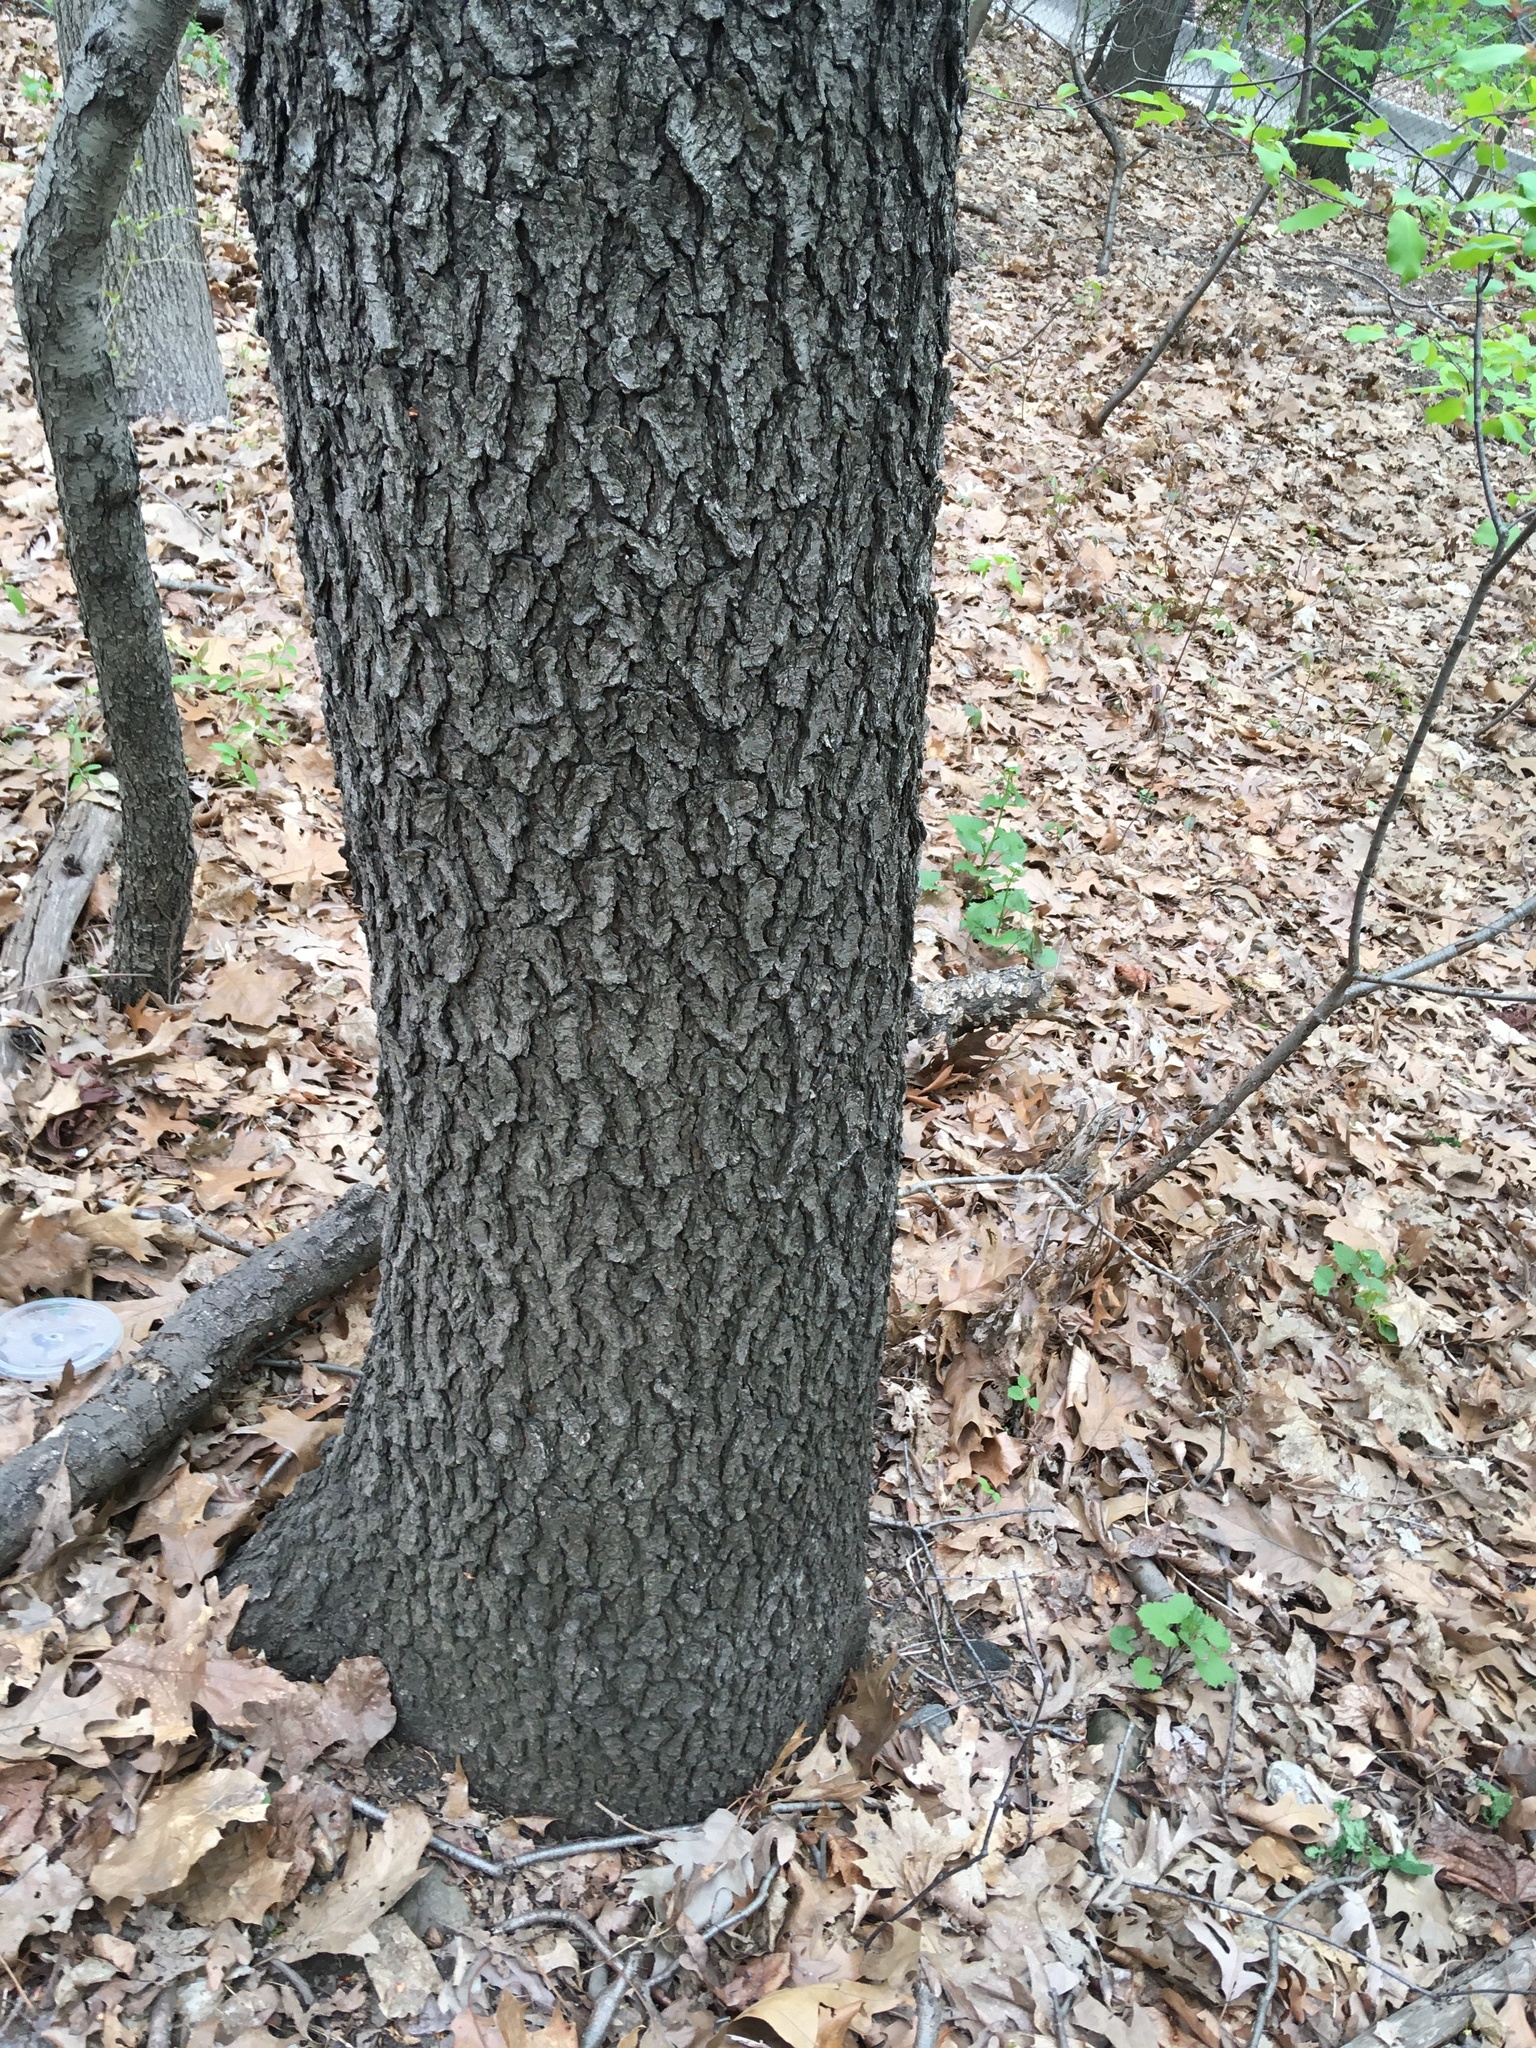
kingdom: Plantae
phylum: Tracheophyta
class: Magnoliopsida
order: Rosales
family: Rosaceae
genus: Prunus
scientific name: Prunus serotina
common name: Black cherry
